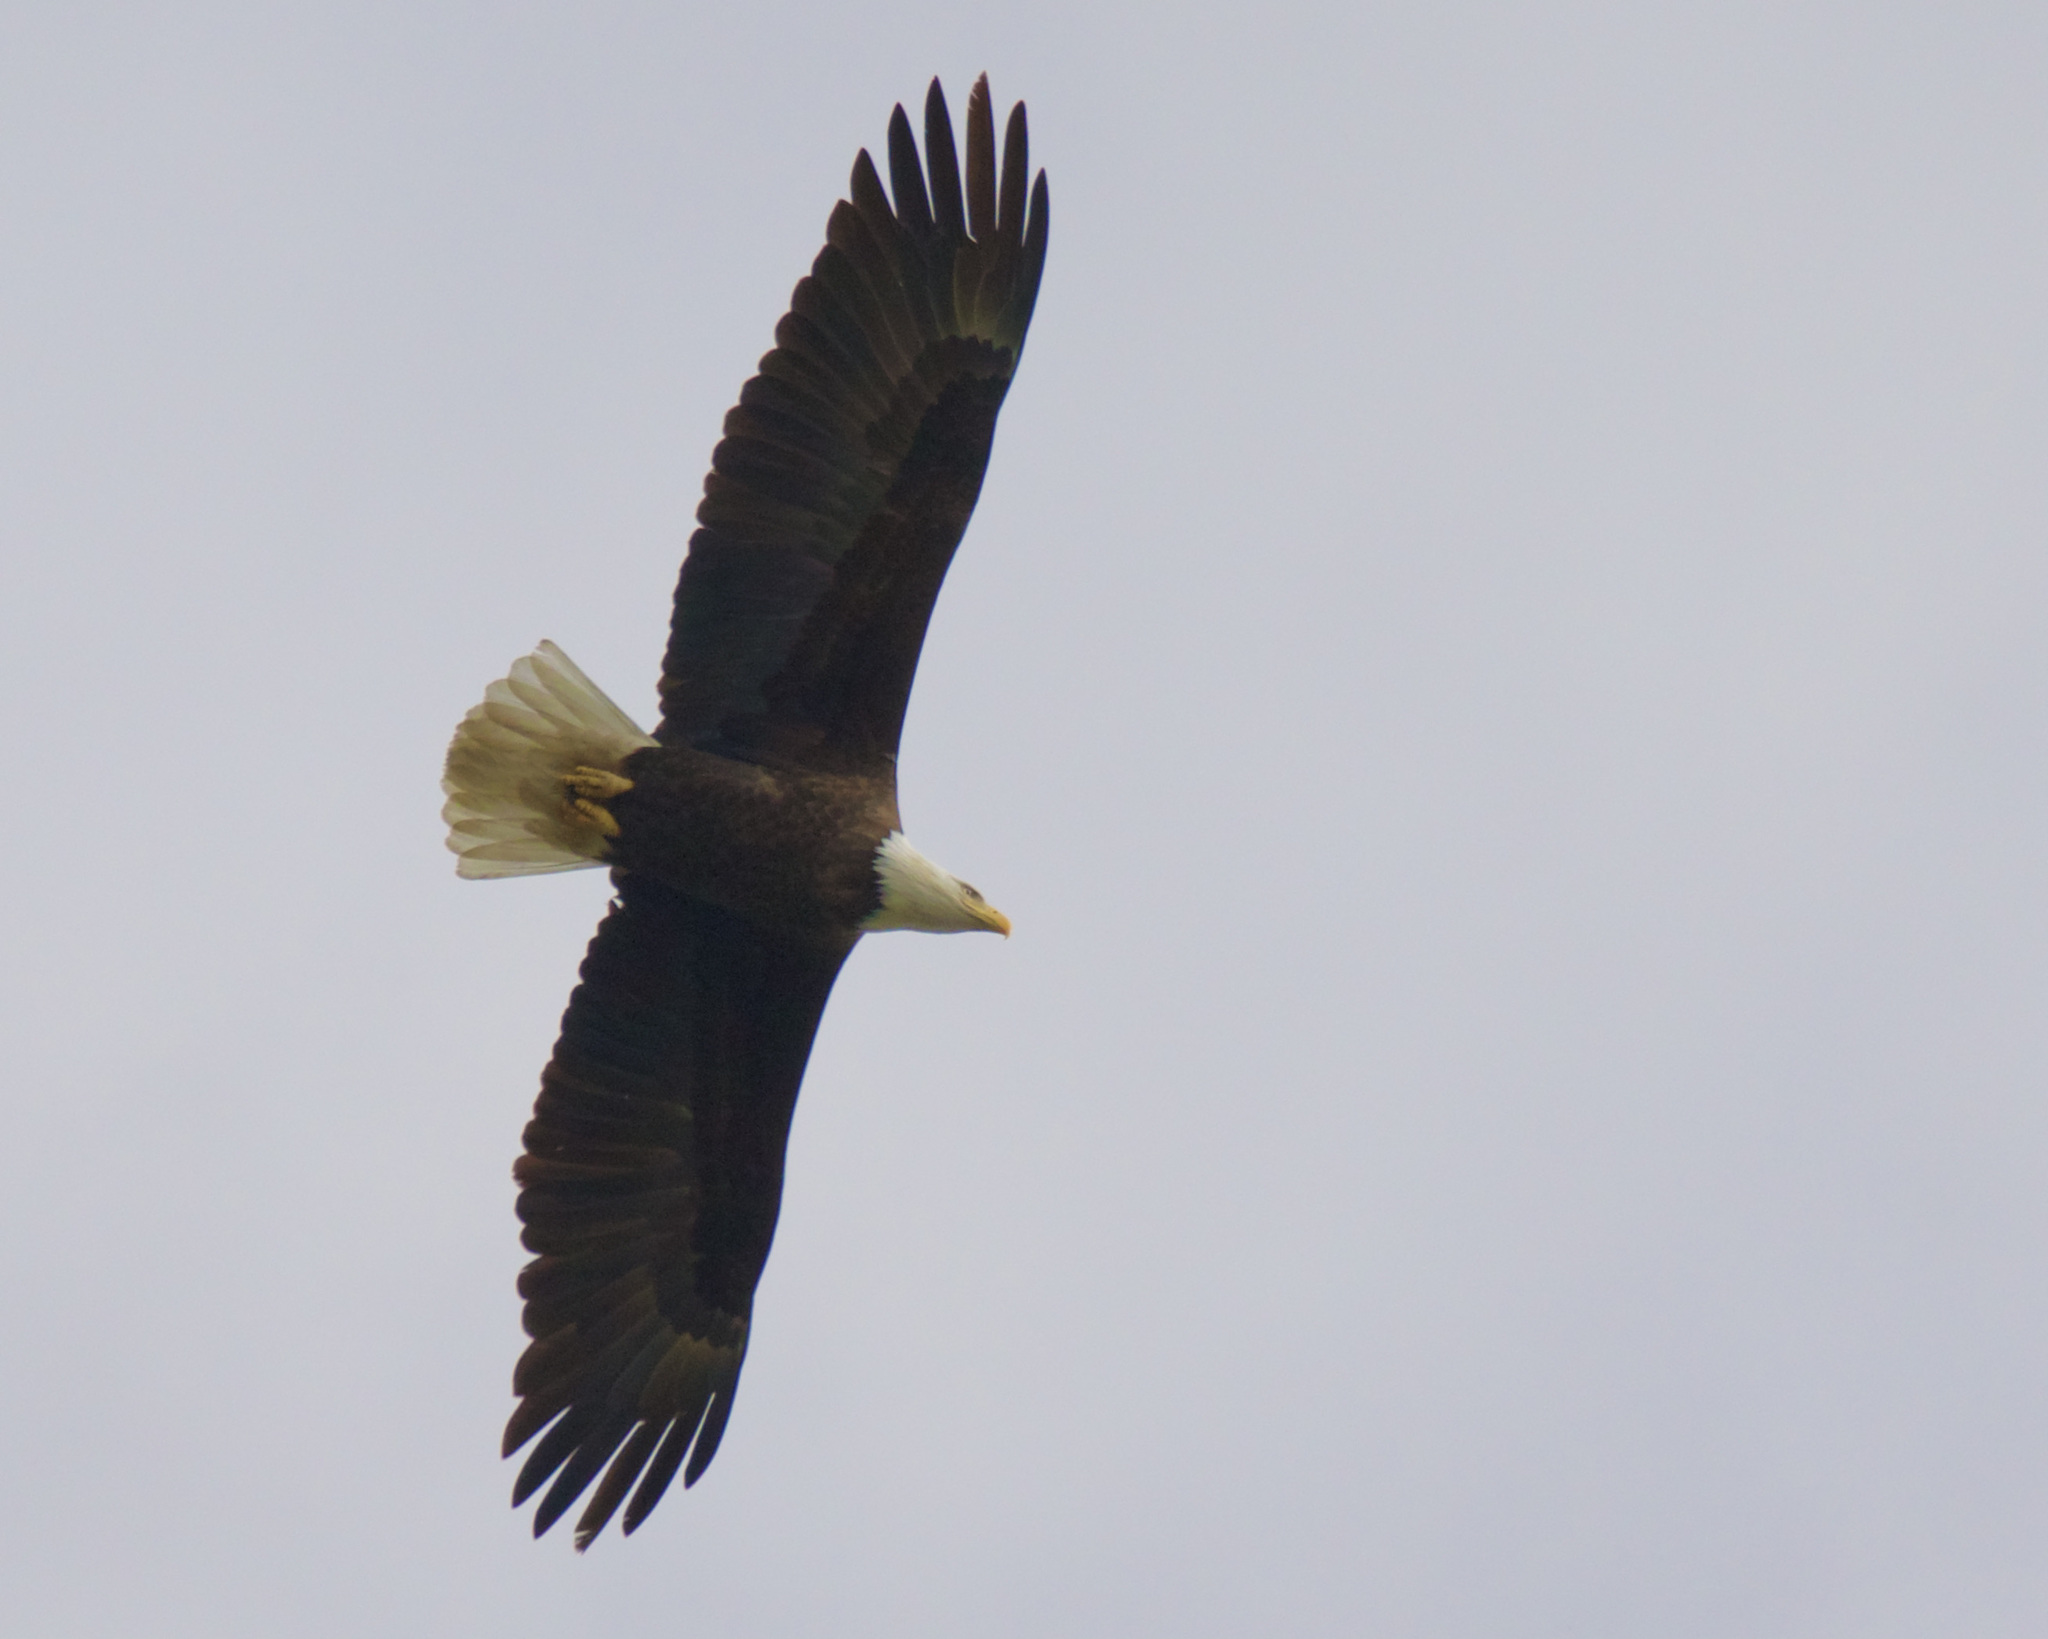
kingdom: Animalia
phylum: Chordata
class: Aves
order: Accipitriformes
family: Accipitridae
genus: Haliaeetus
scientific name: Haliaeetus leucocephalus
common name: Bald eagle
